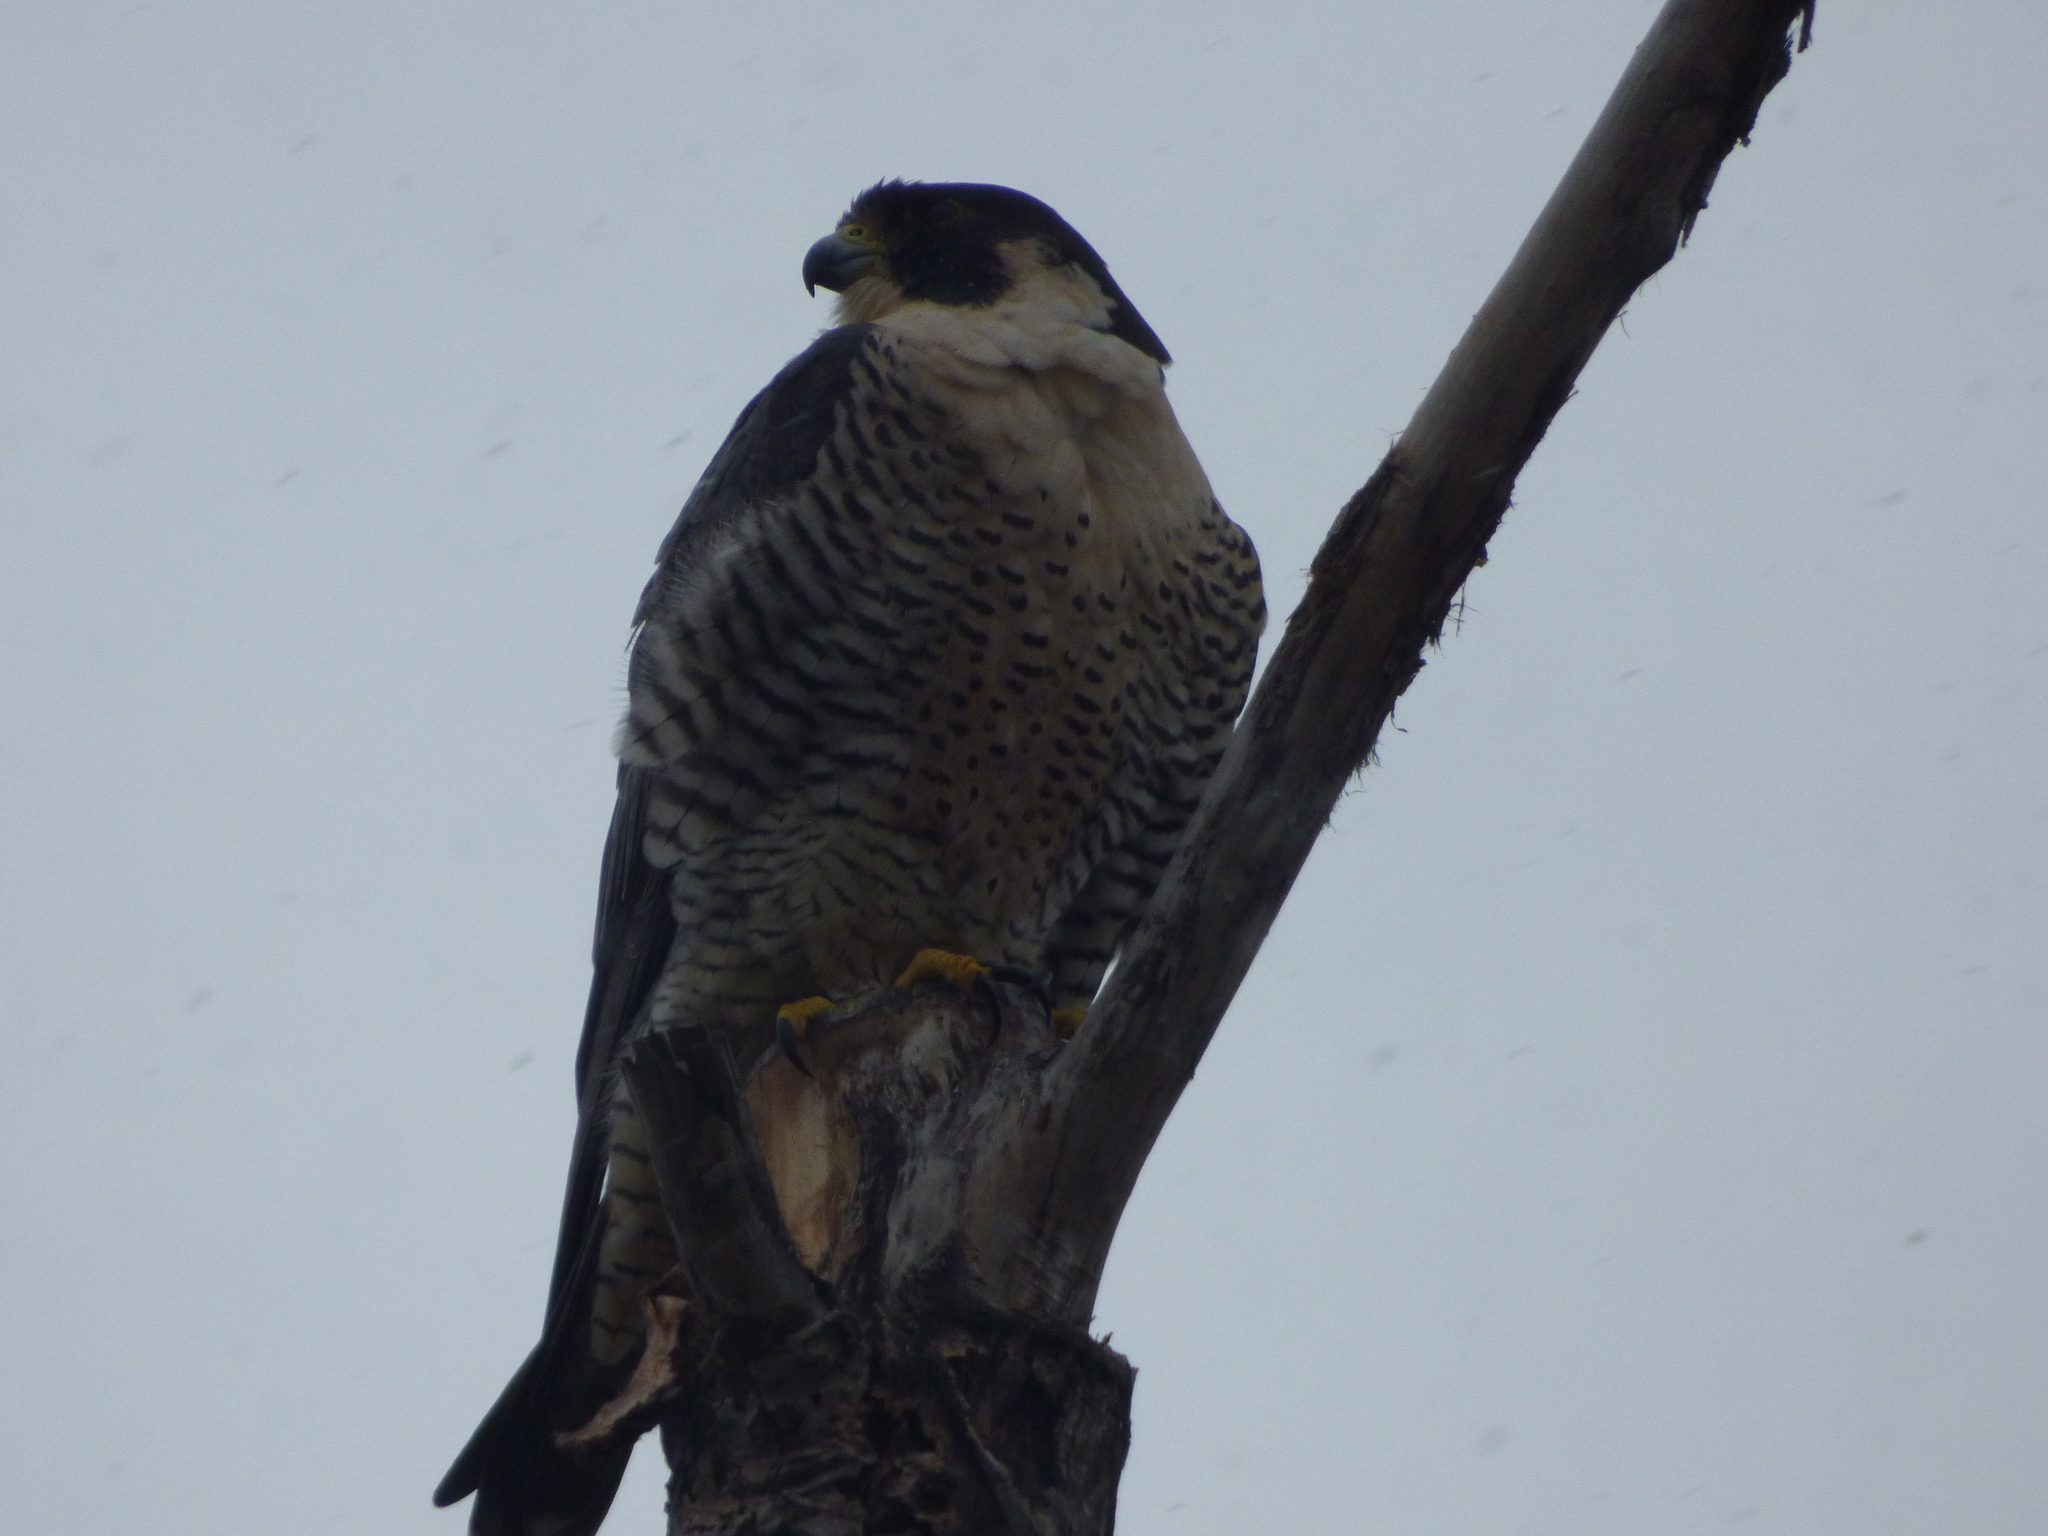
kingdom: Animalia
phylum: Chordata
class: Aves
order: Falconiformes
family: Falconidae
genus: Falco
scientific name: Falco peregrinus
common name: Peregrine falcon
